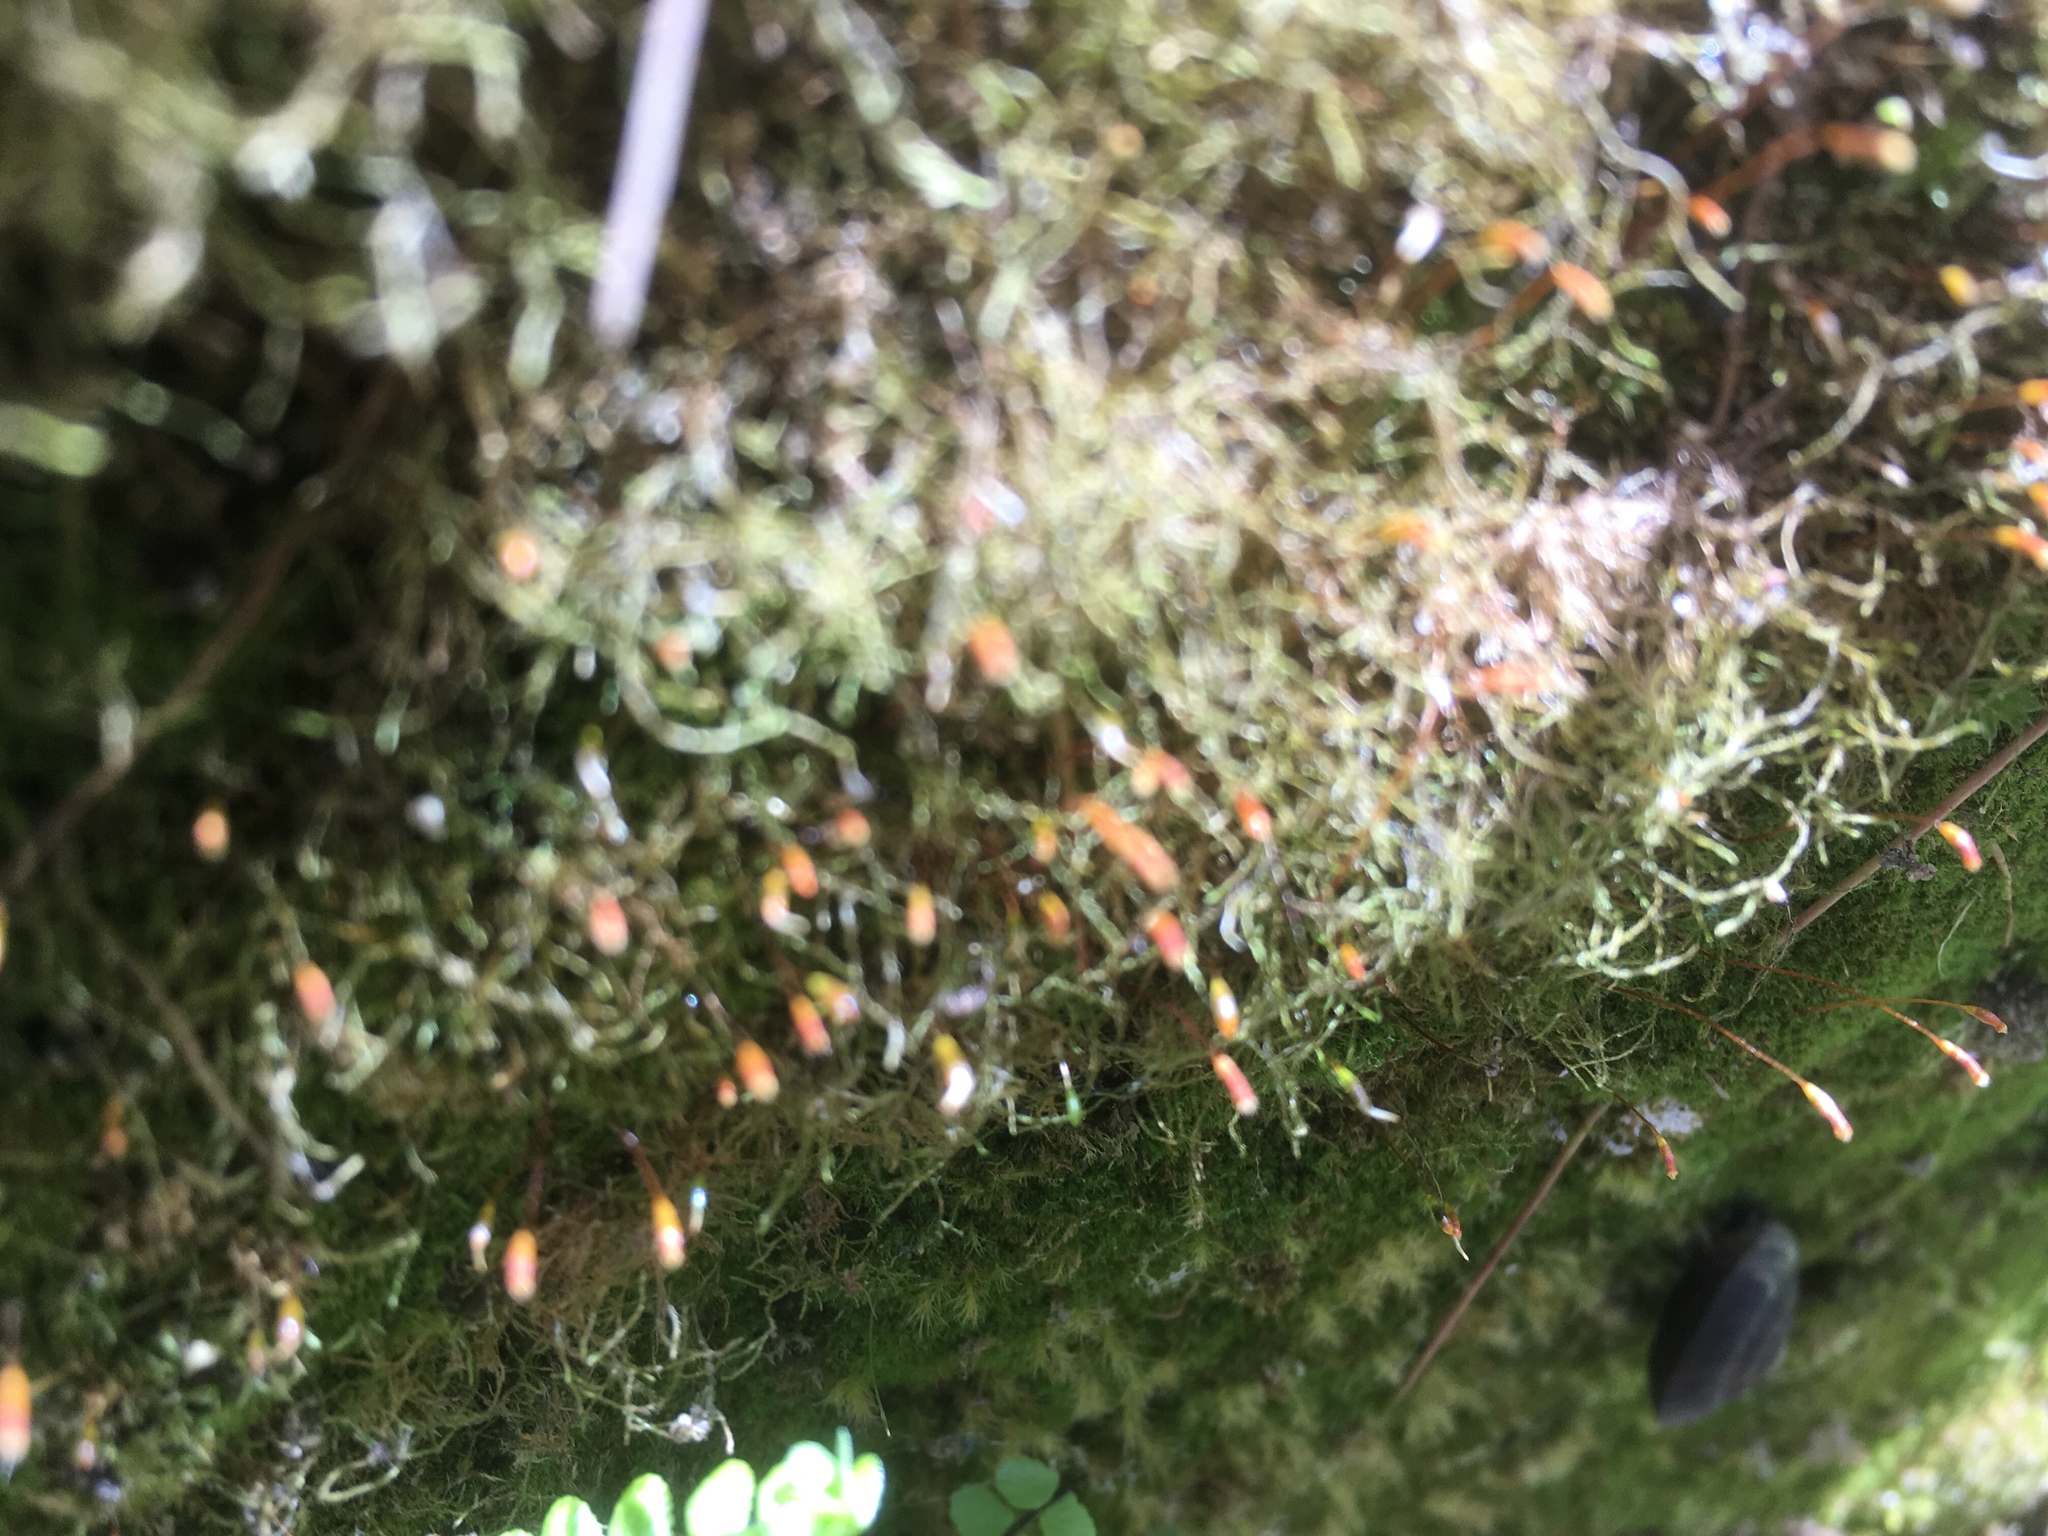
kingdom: Animalia
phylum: Mollusca
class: Gastropoda
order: Stylommatophora
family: Helicidae
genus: Helicigona
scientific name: Helicigona lapicida
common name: Lapidary snail
